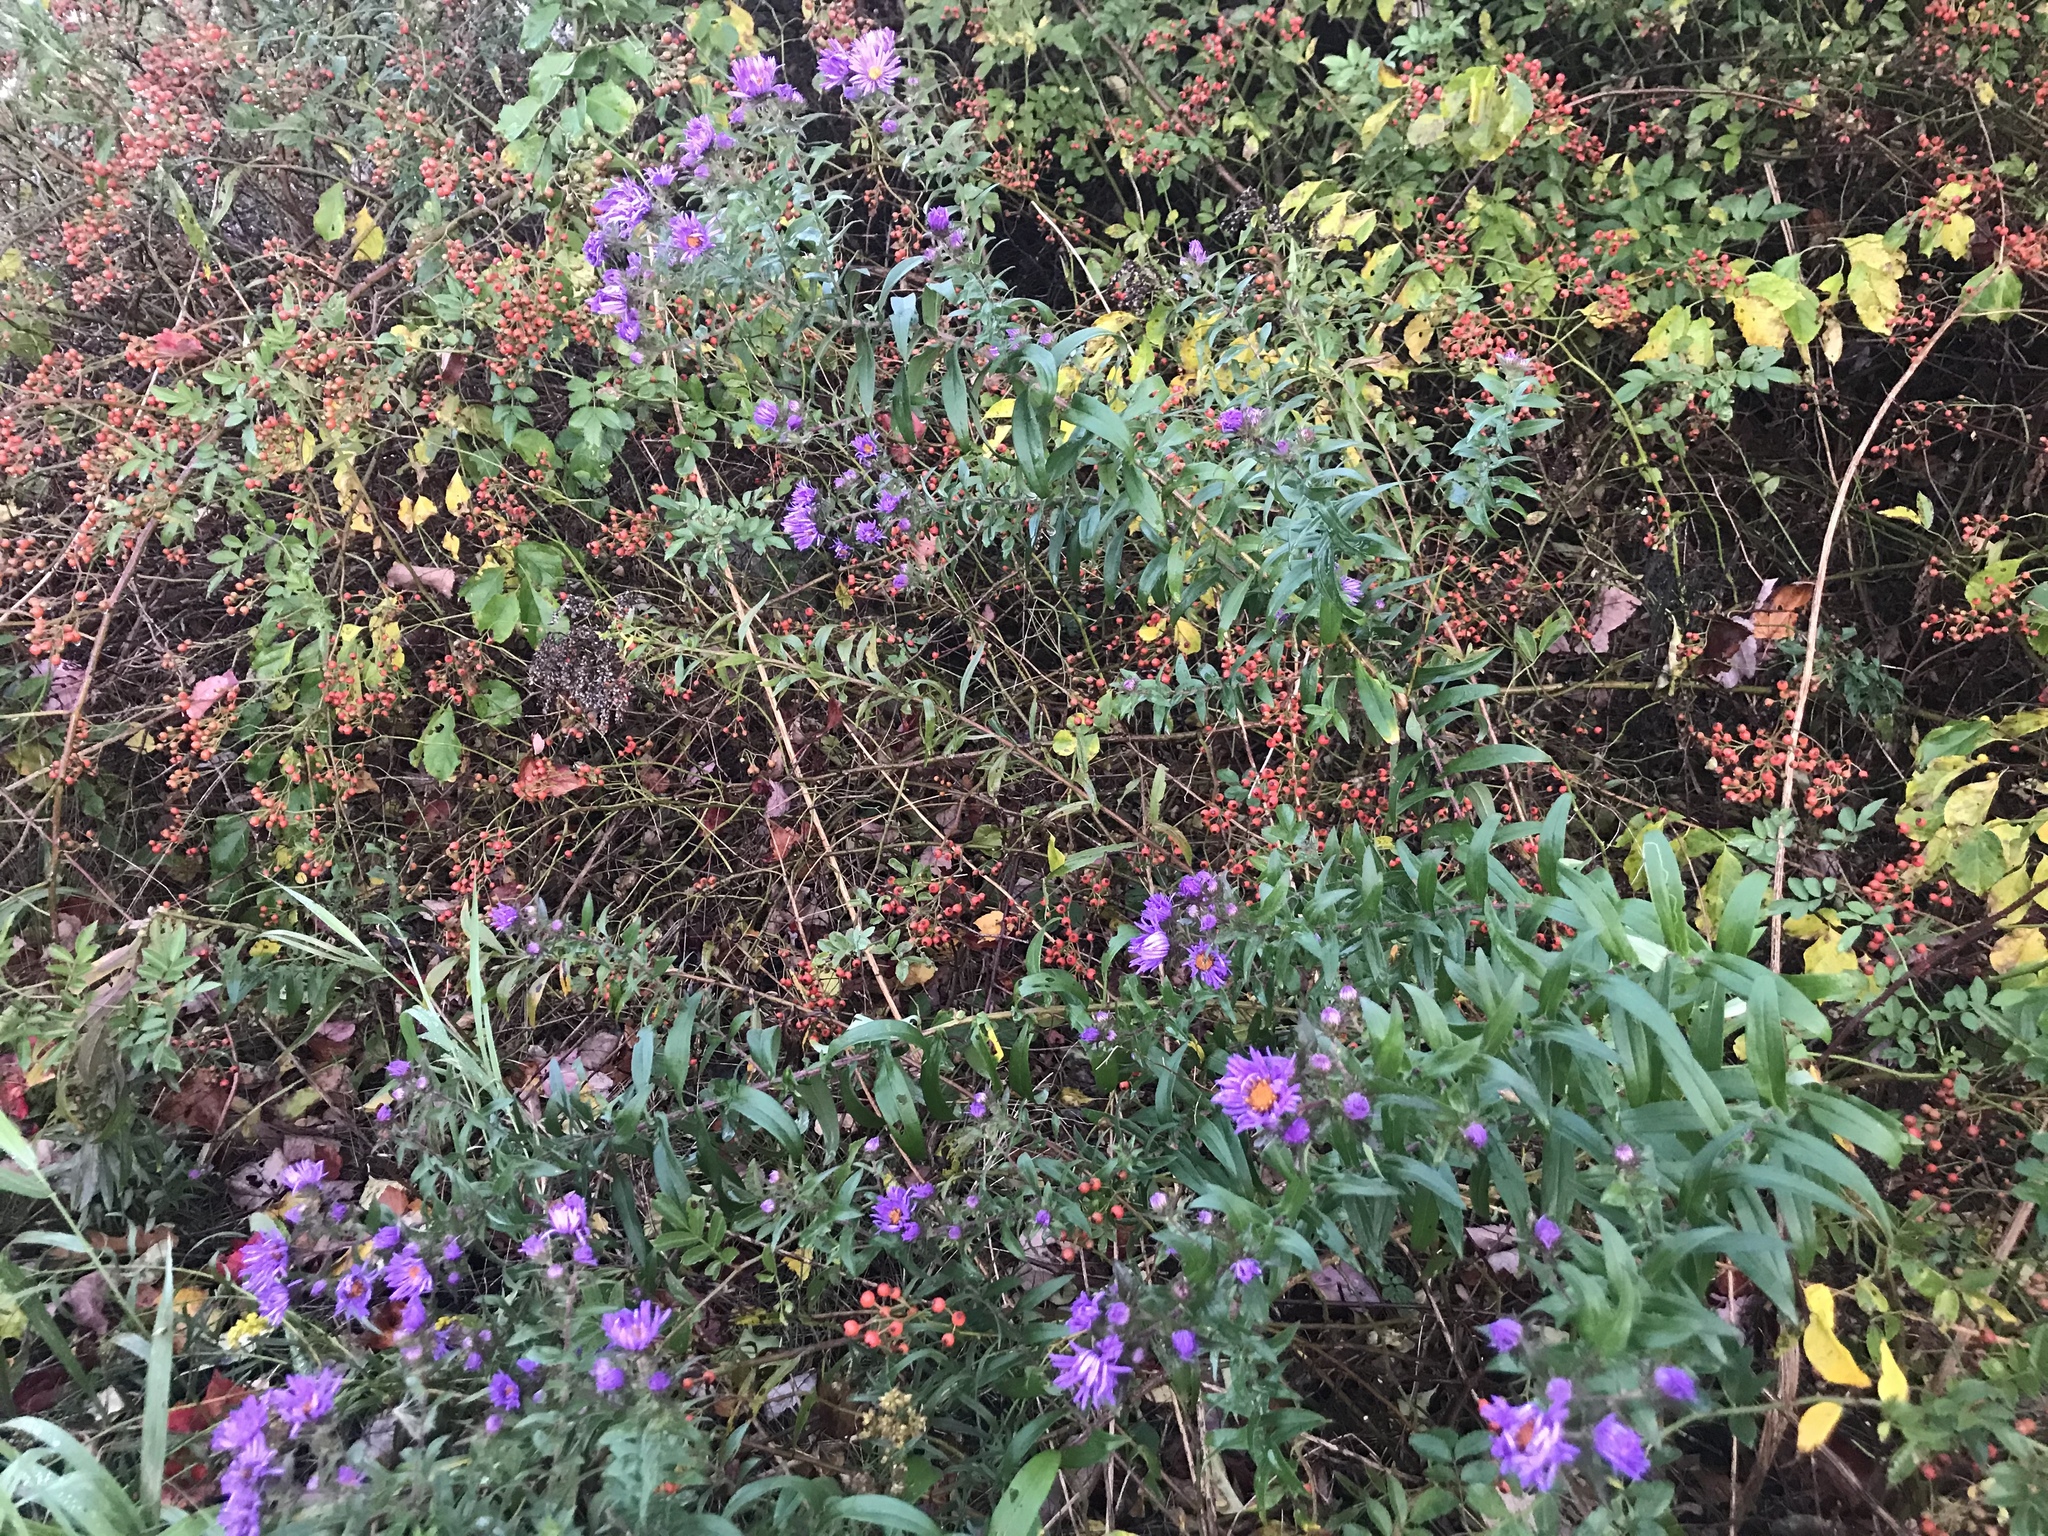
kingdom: Plantae
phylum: Tracheophyta
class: Magnoliopsida
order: Asterales
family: Asteraceae
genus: Symphyotrichum
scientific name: Symphyotrichum novae-angliae
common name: Michaelmas daisy
